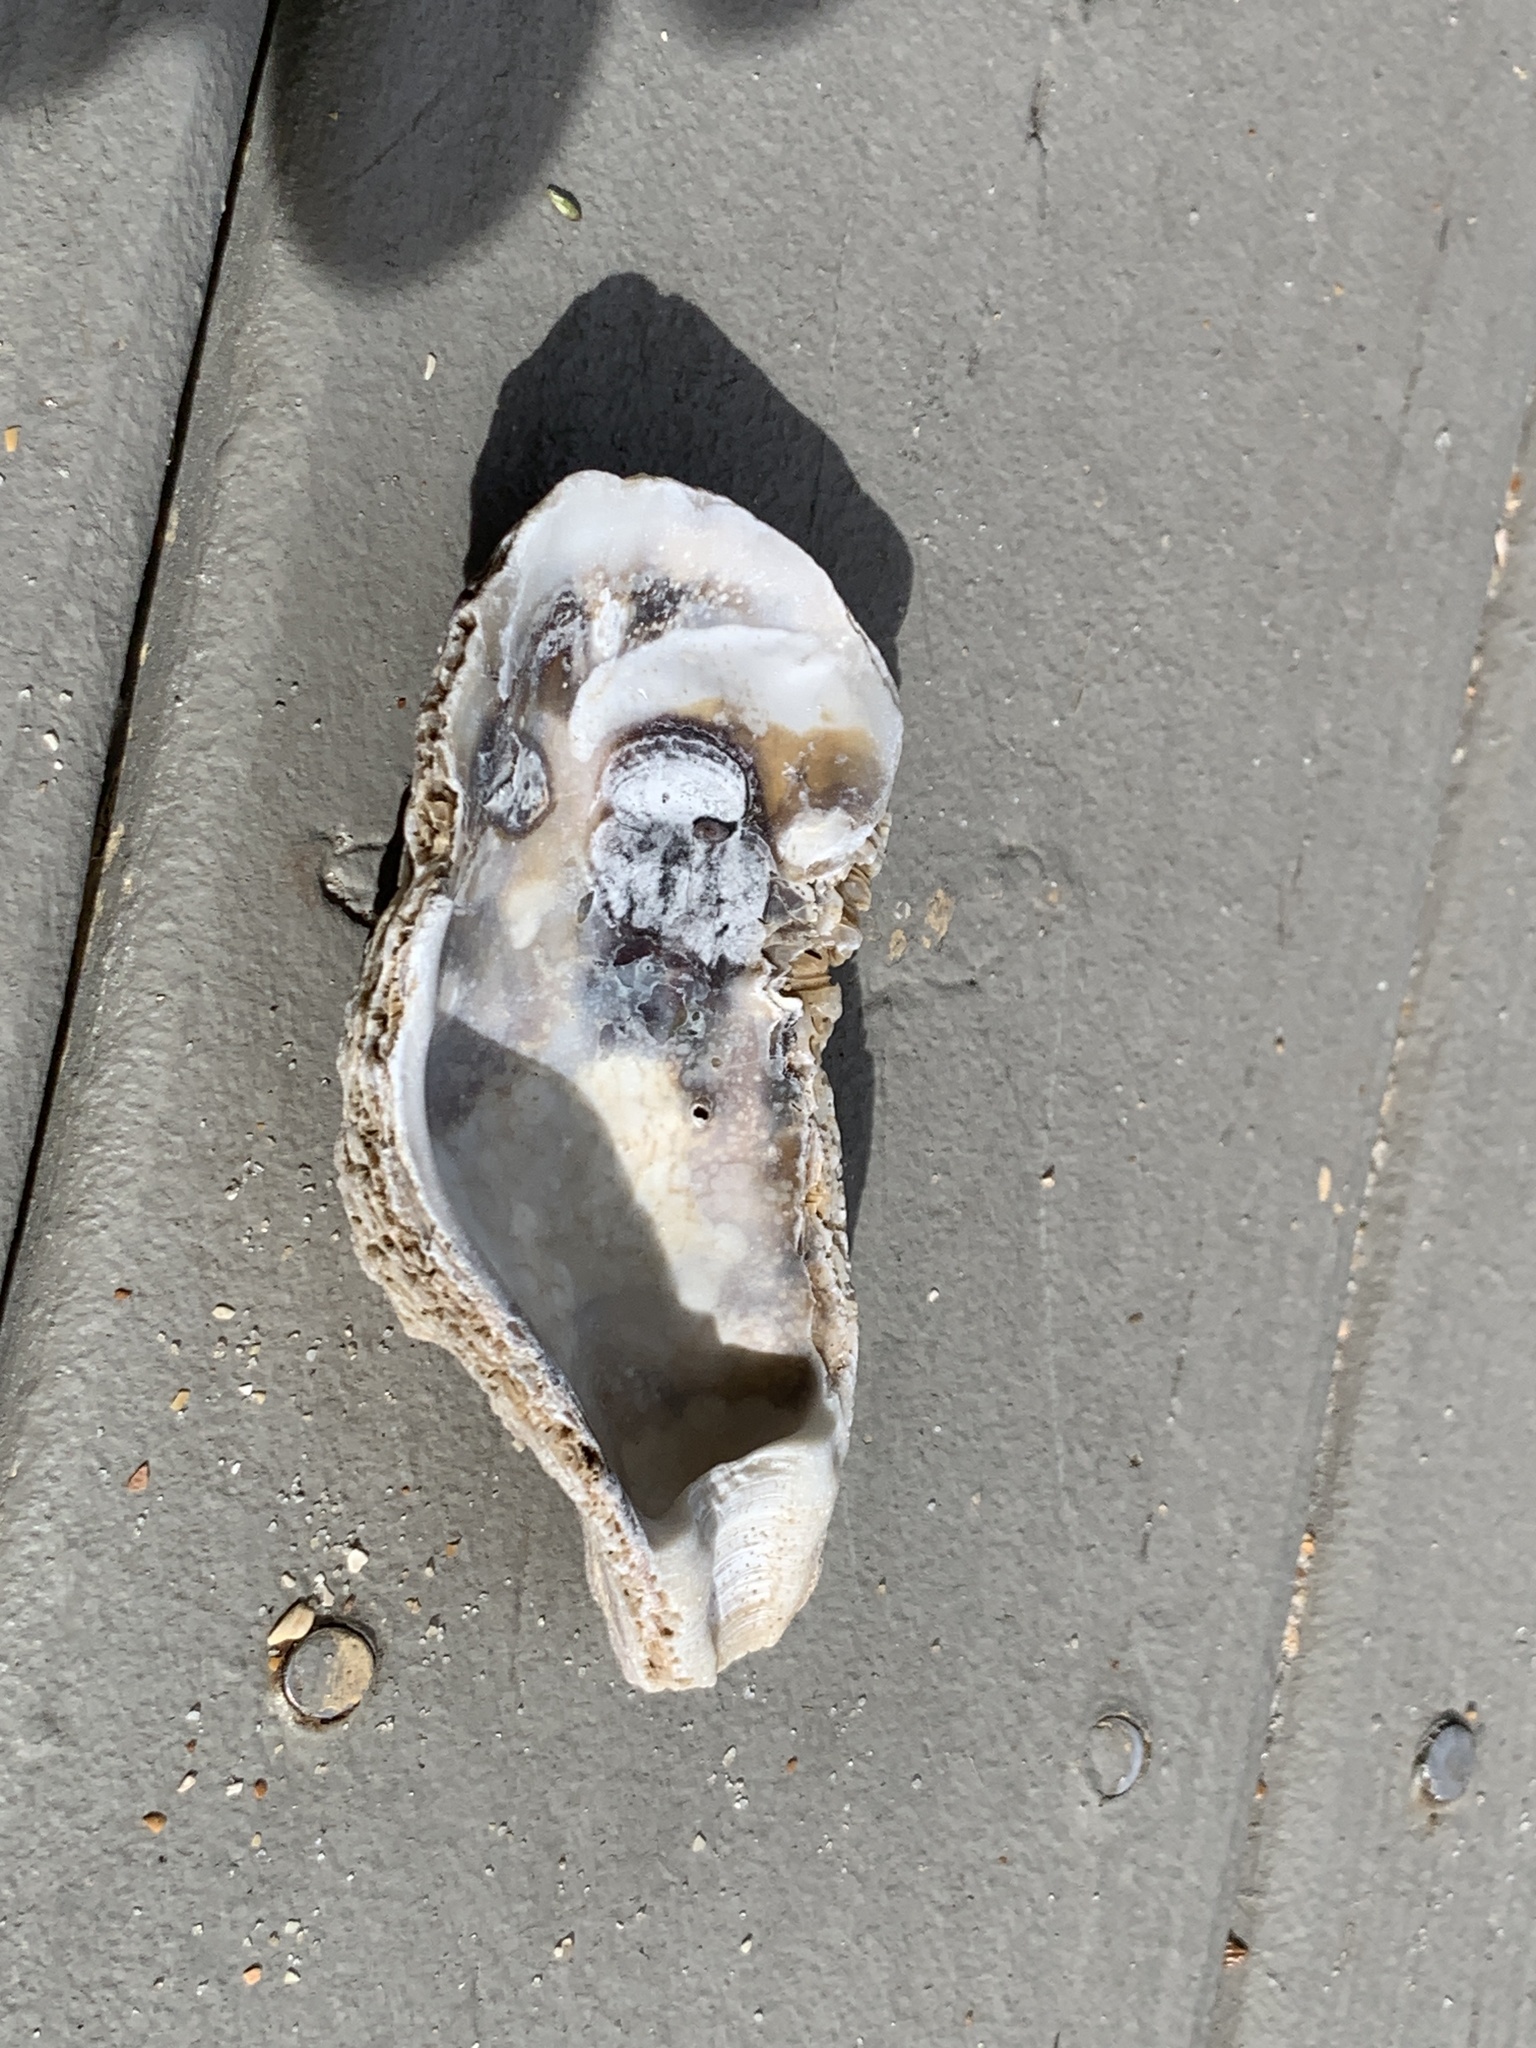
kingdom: Animalia
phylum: Mollusca
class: Bivalvia
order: Ostreida
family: Ostreidae
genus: Crassostrea
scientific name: Crassostrea virginica
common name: American oyster
